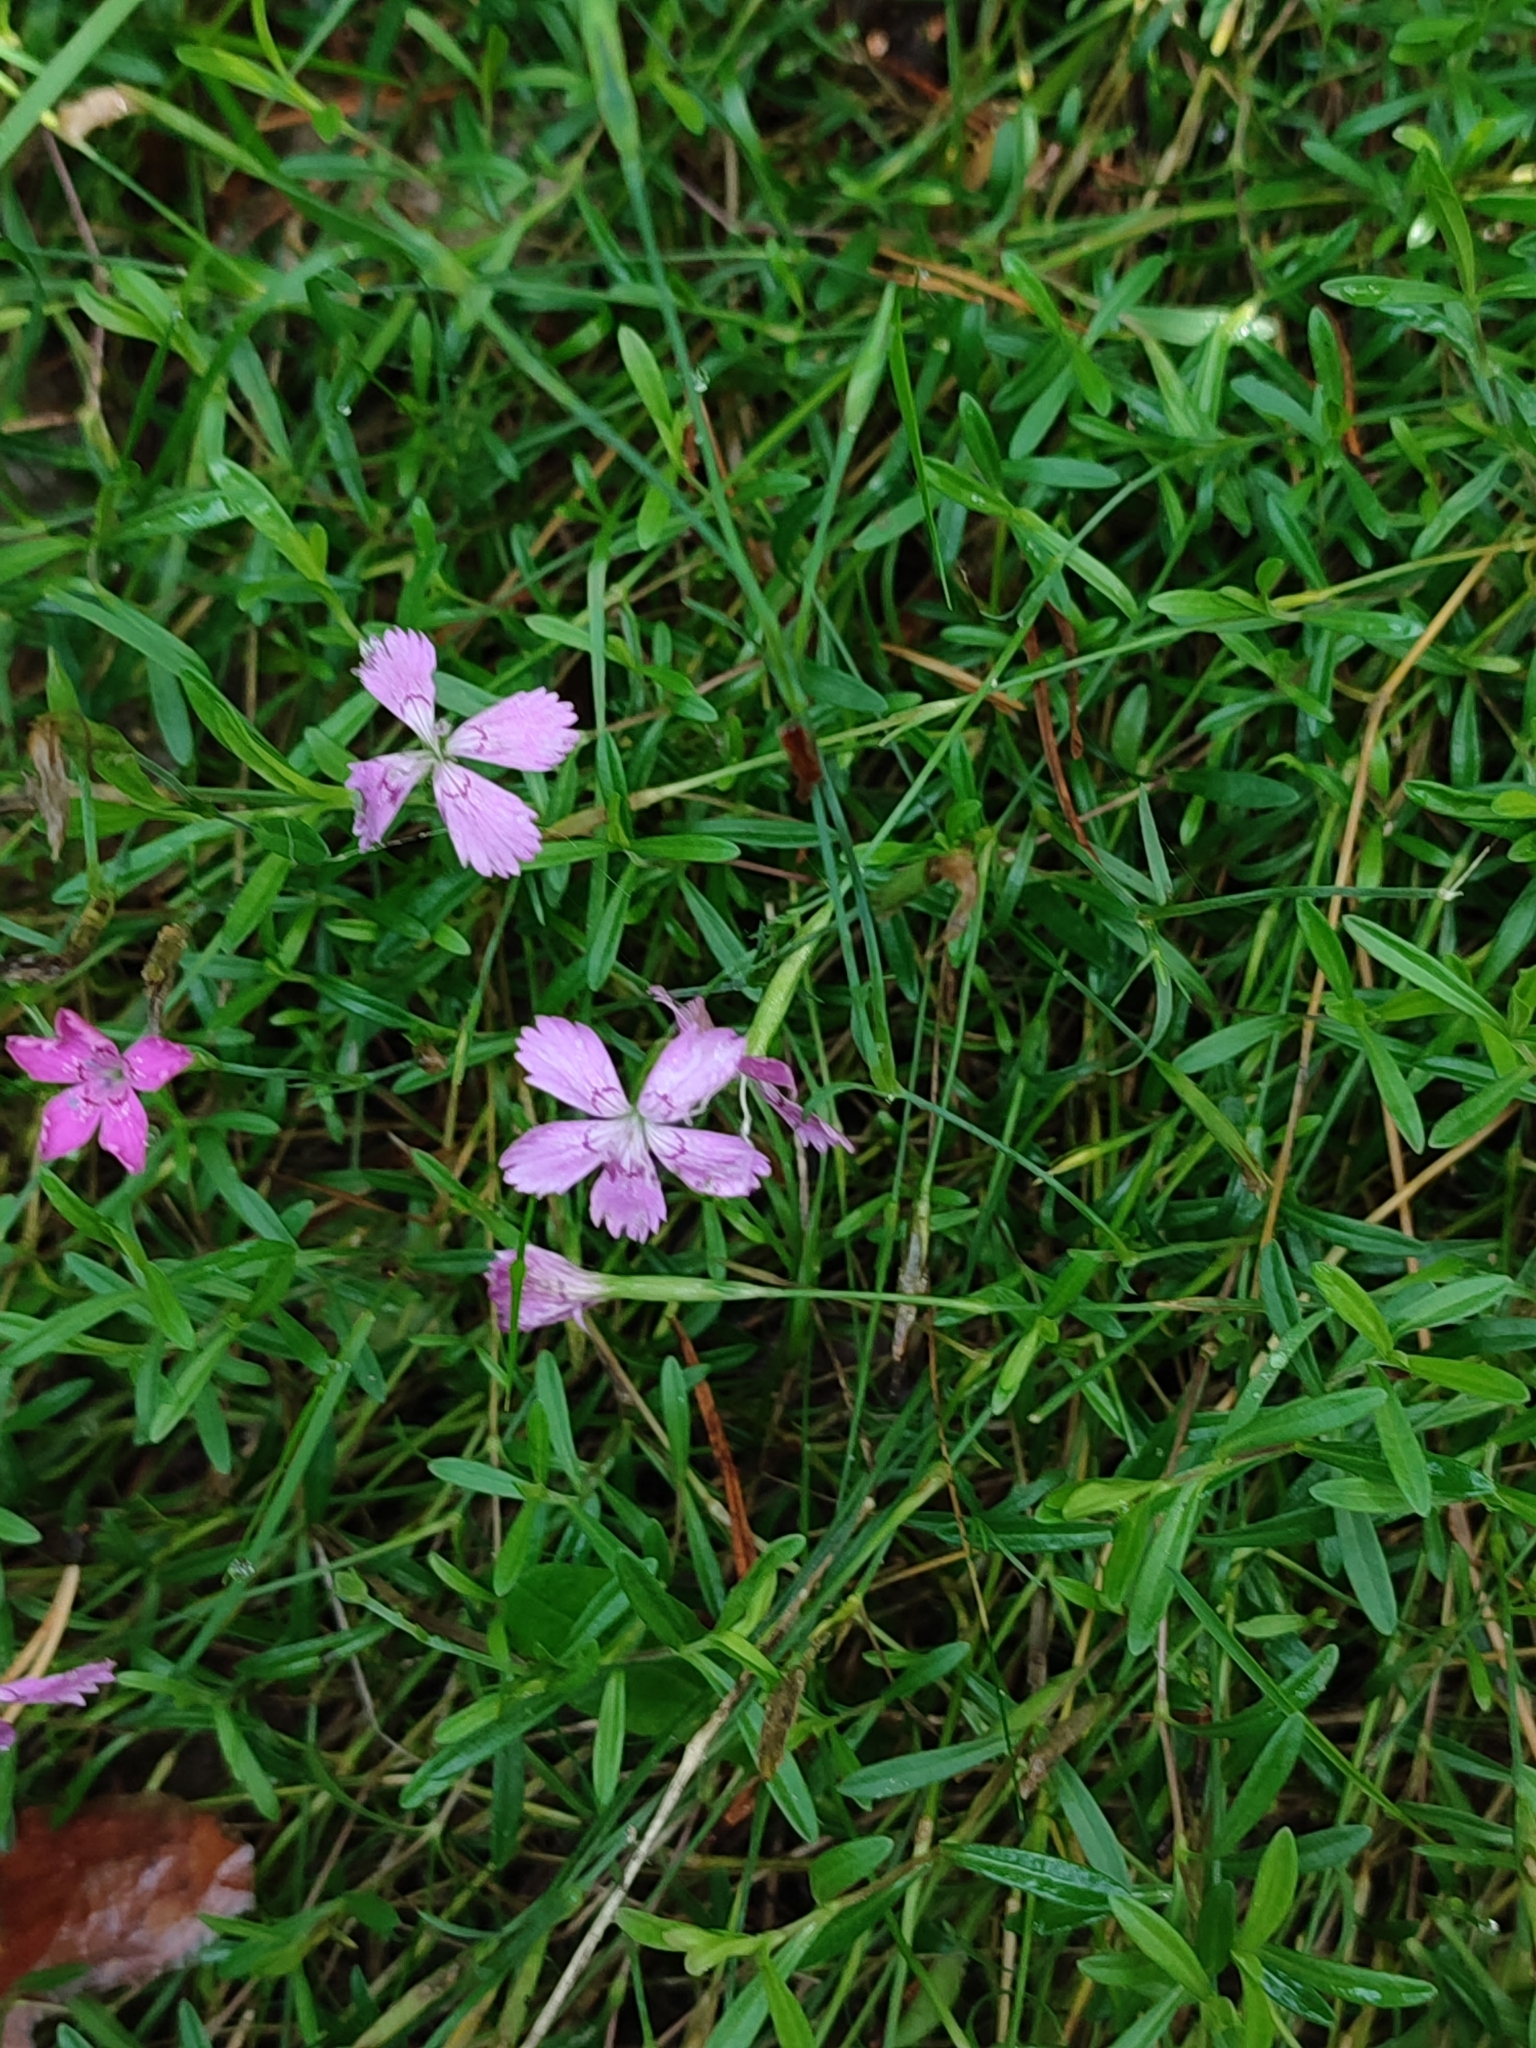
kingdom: Plantae
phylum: Tracheophyta
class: Magnoliopsida
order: Caryophyllales
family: Caryophyllaceae
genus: Dianthus
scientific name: Dianthus deltoides
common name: Maiden pink
